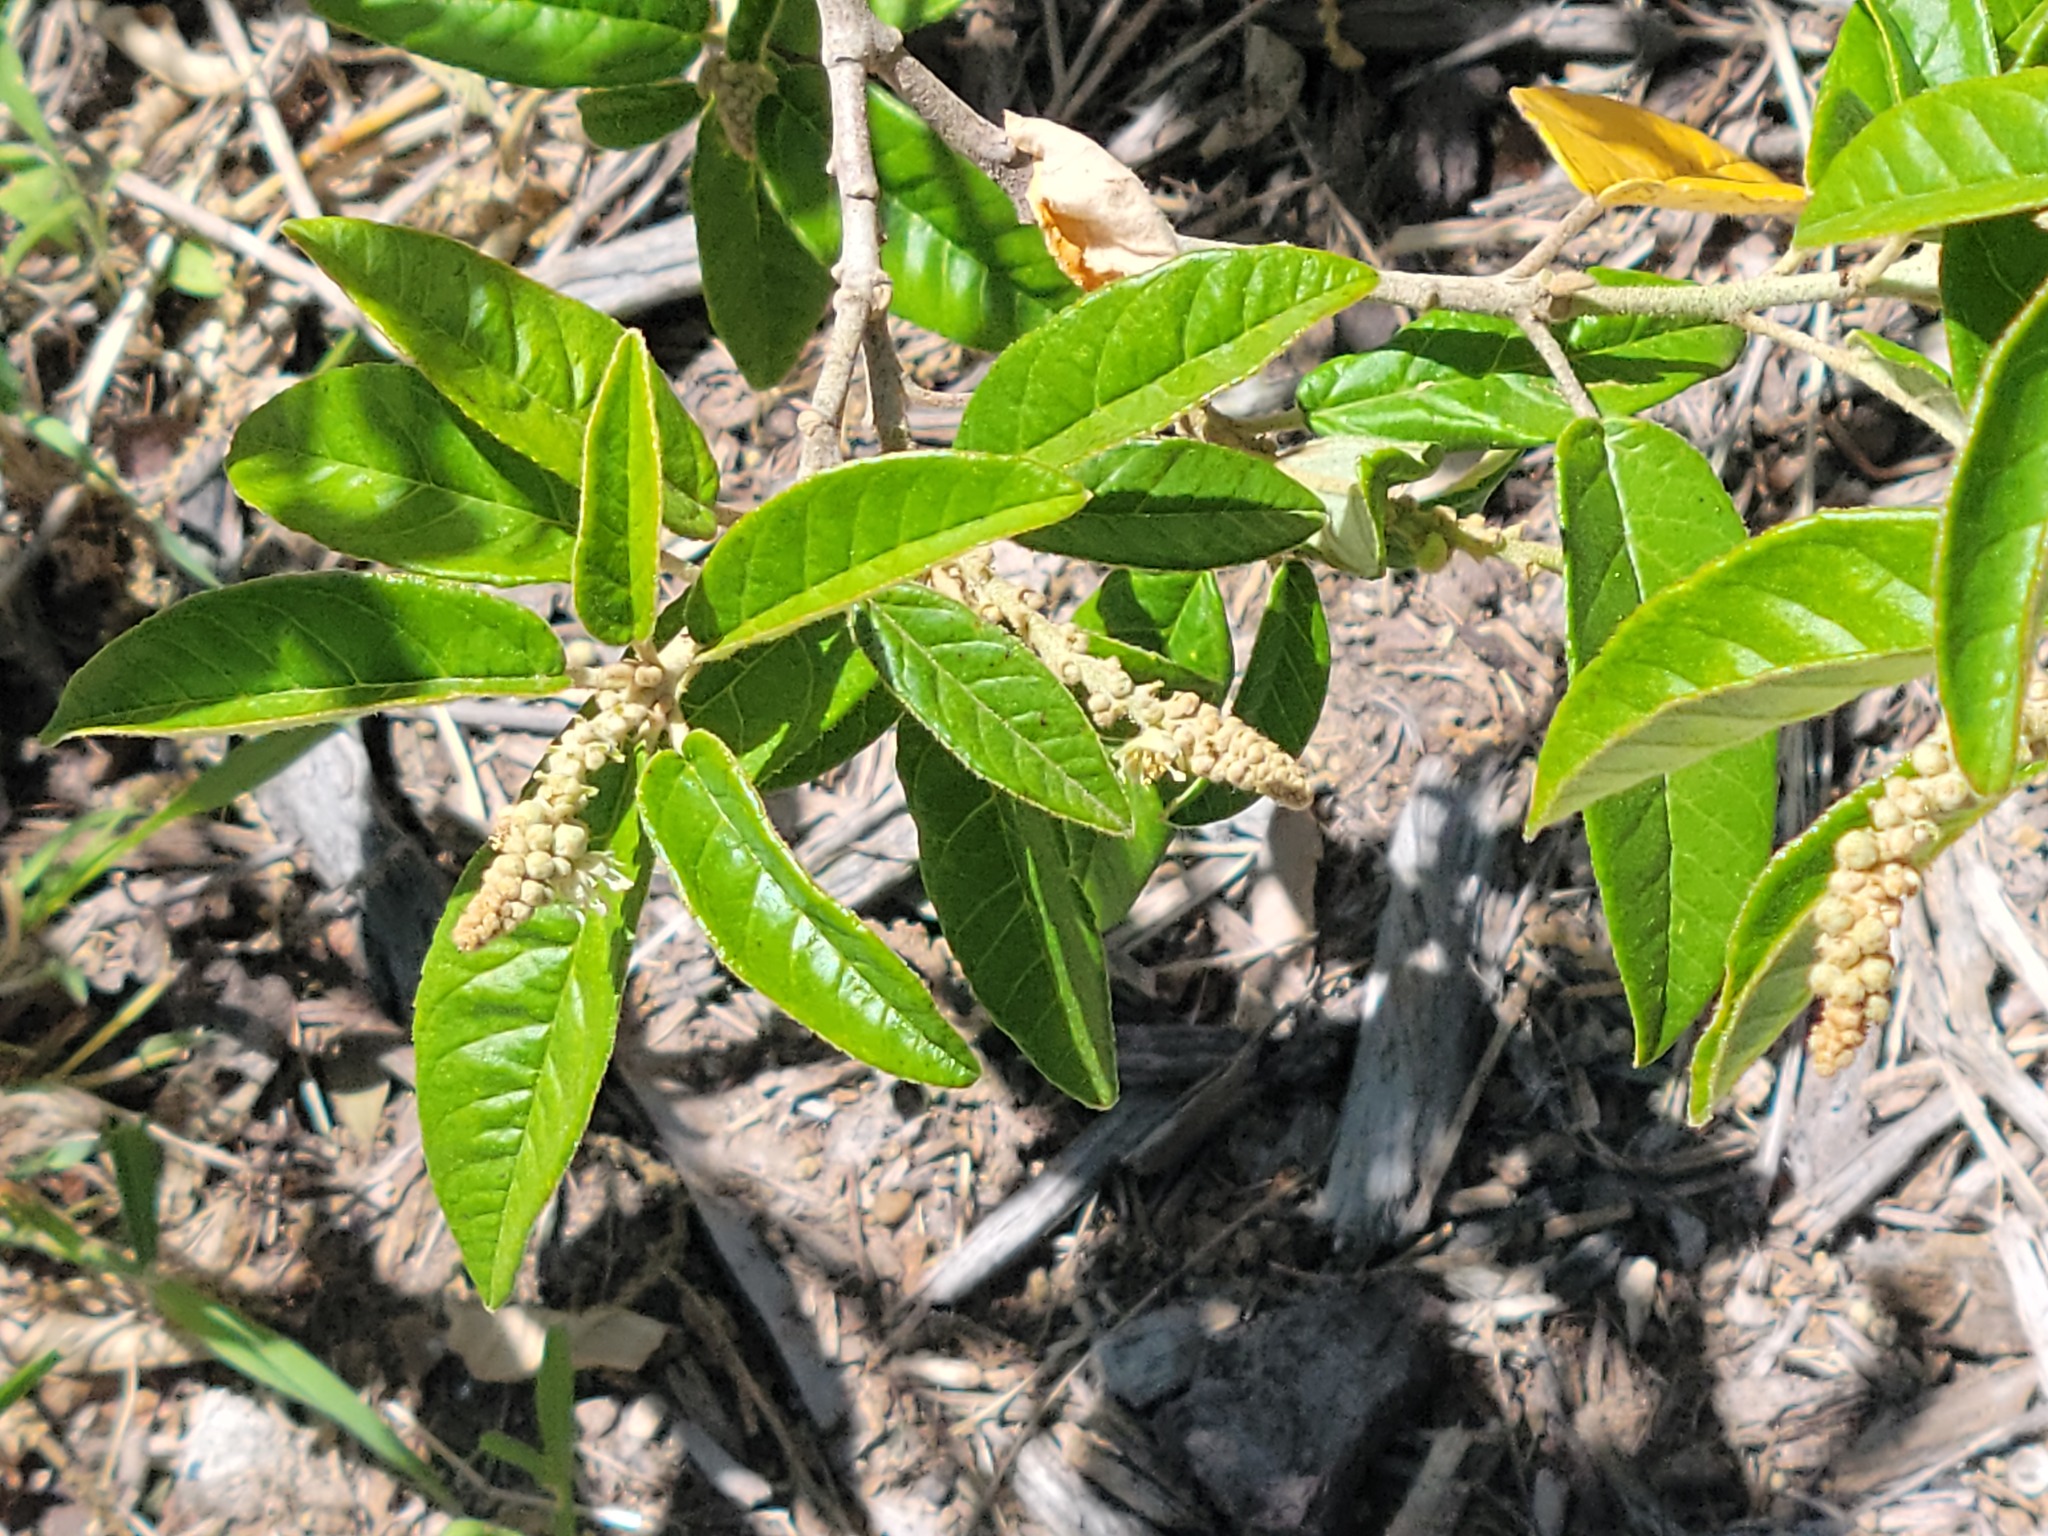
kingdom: Plantae
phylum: Tracheophyta
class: Magnoliopsida
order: Malpighiales
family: Euphorbiaceae
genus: Croton
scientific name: Croton cortesianus
